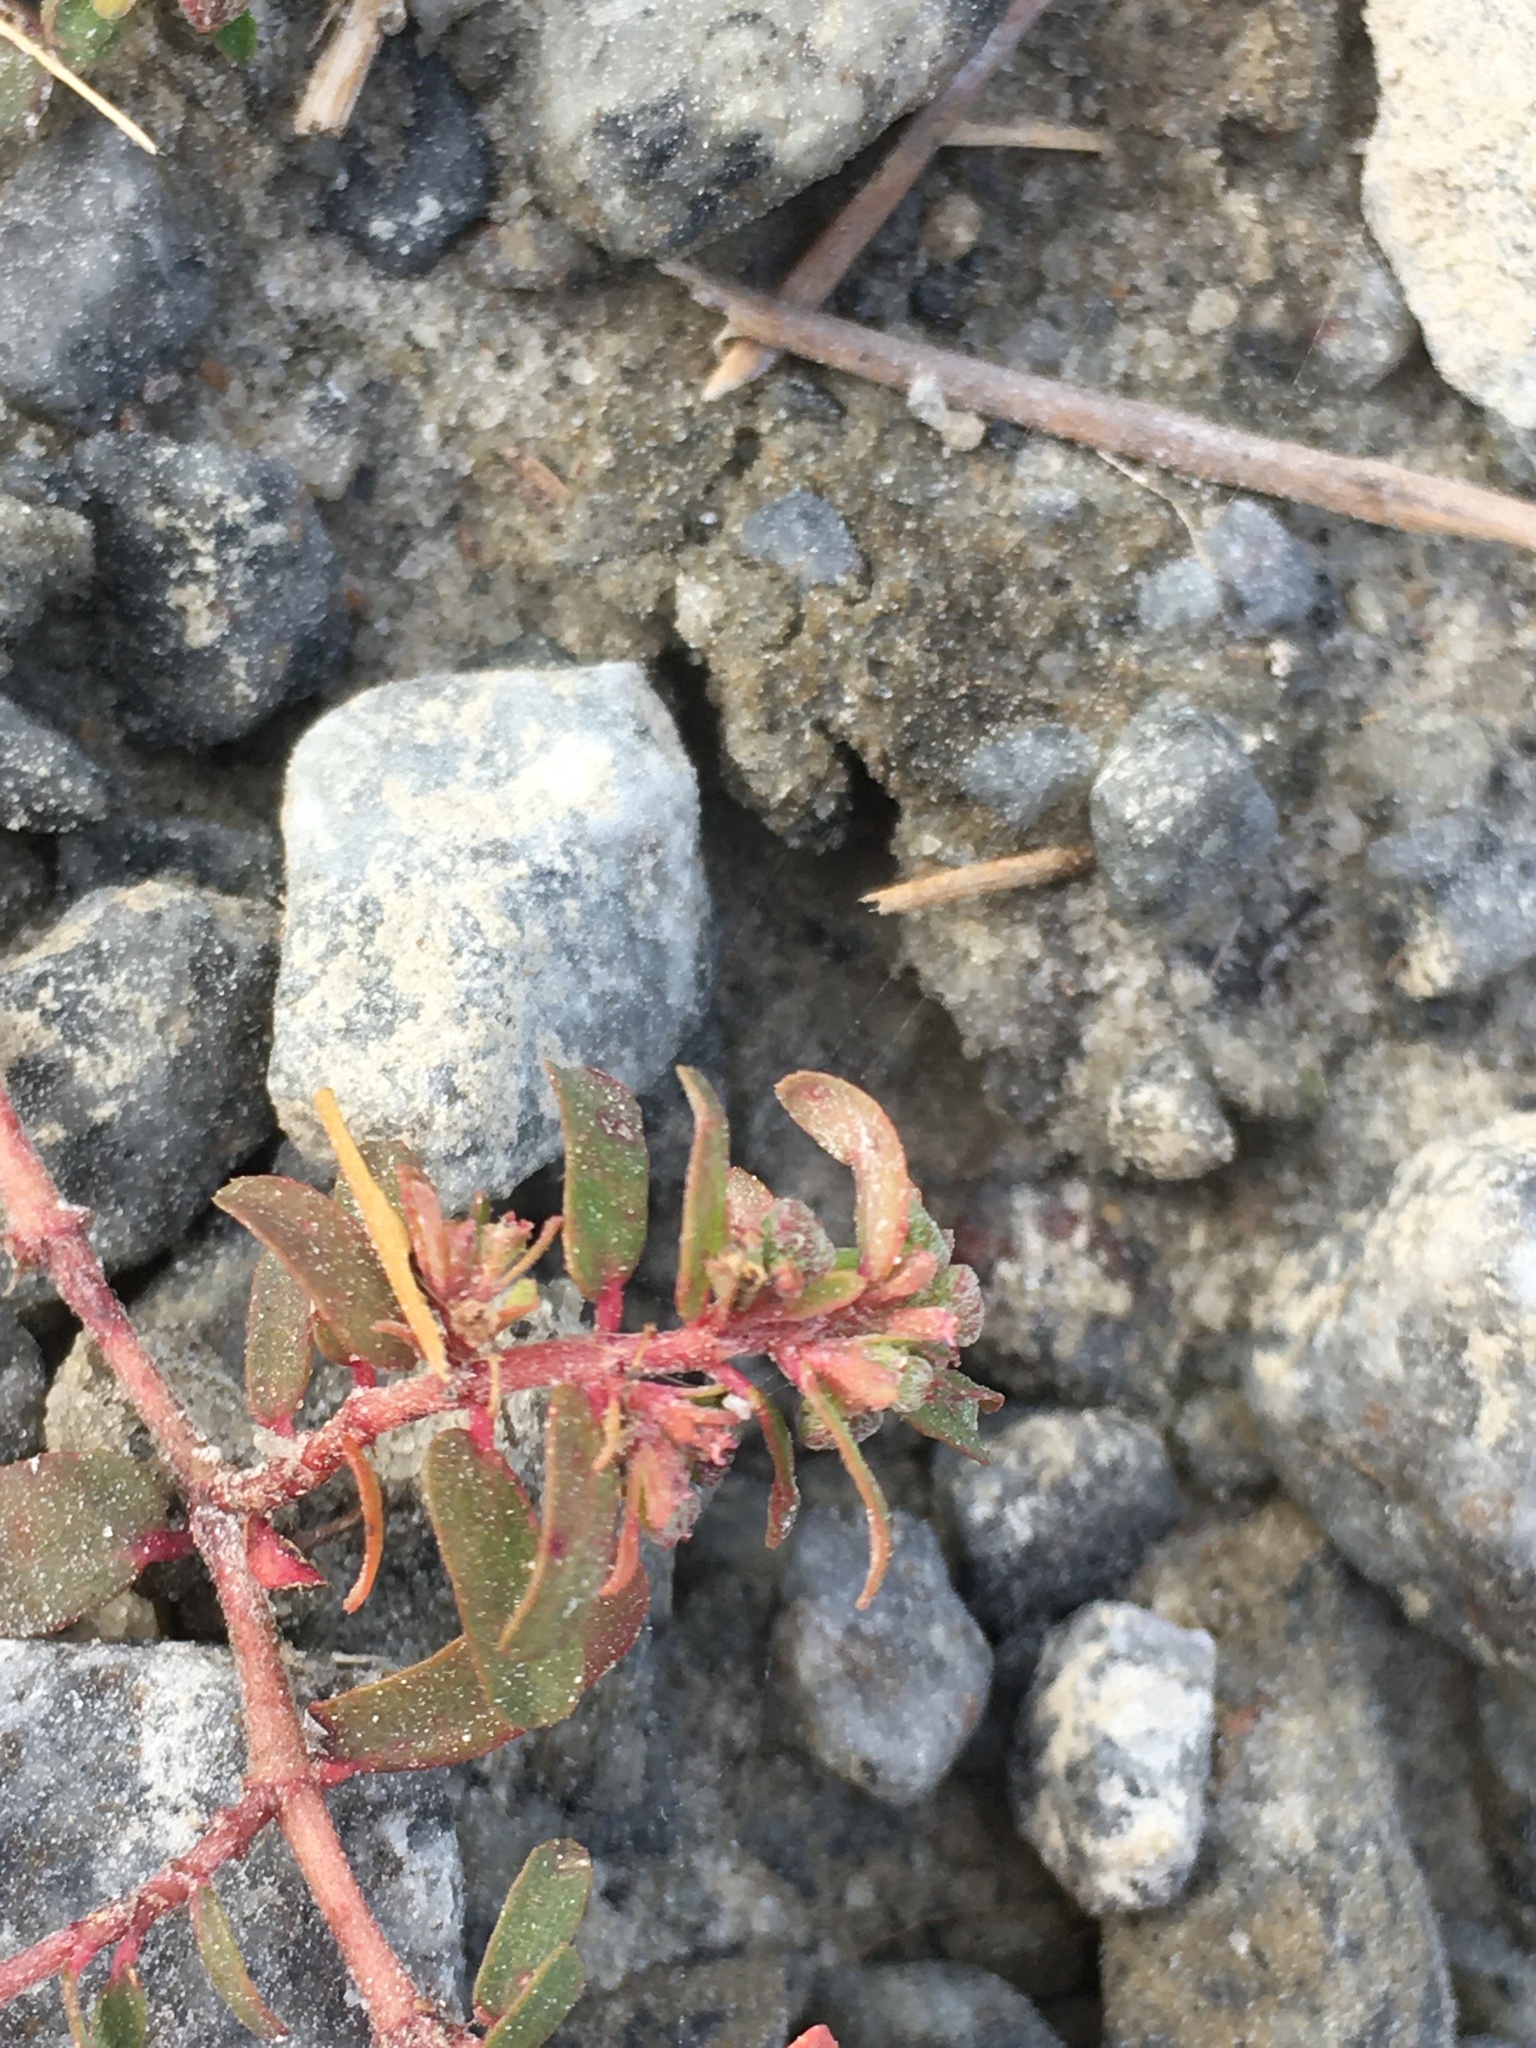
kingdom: Plantae
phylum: Tracheophyta
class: Magnoliopsida
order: Malpighiales
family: Euphorbiaceae
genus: Euphorbia
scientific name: Euphorbia maculata
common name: Spotted spurge
